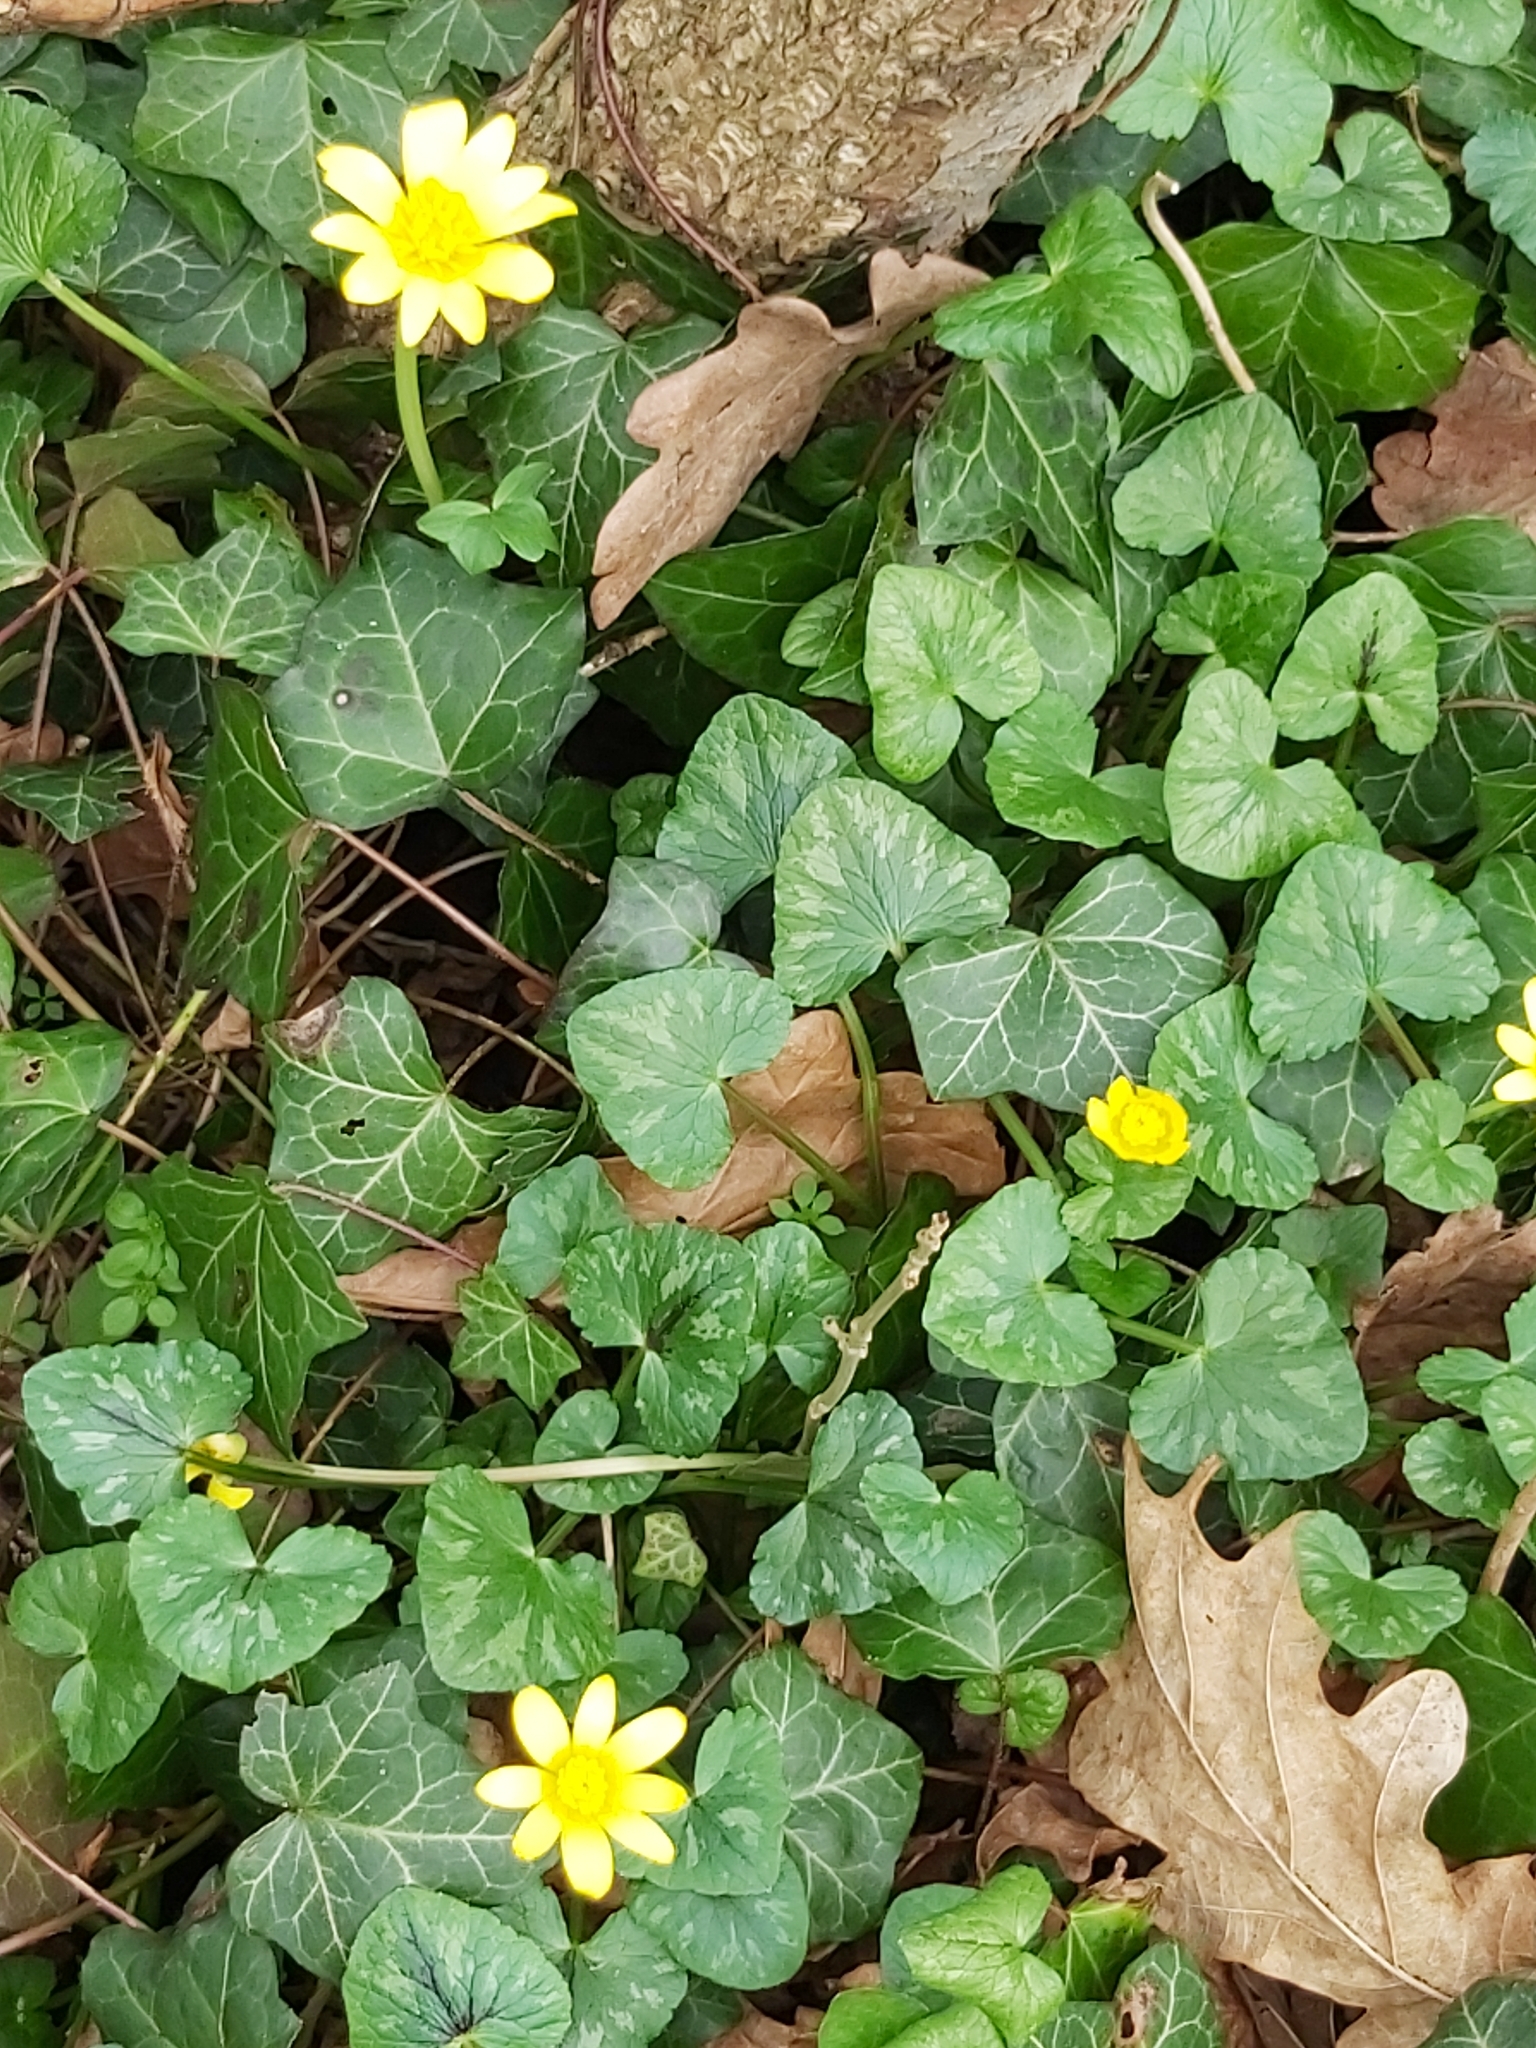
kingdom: Plantae
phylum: Tracheophyta
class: Magnoliopsida
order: Ranunculales
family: Ranunculaceae
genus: Ficaria
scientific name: Ficaria verna
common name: Lesser celandine
